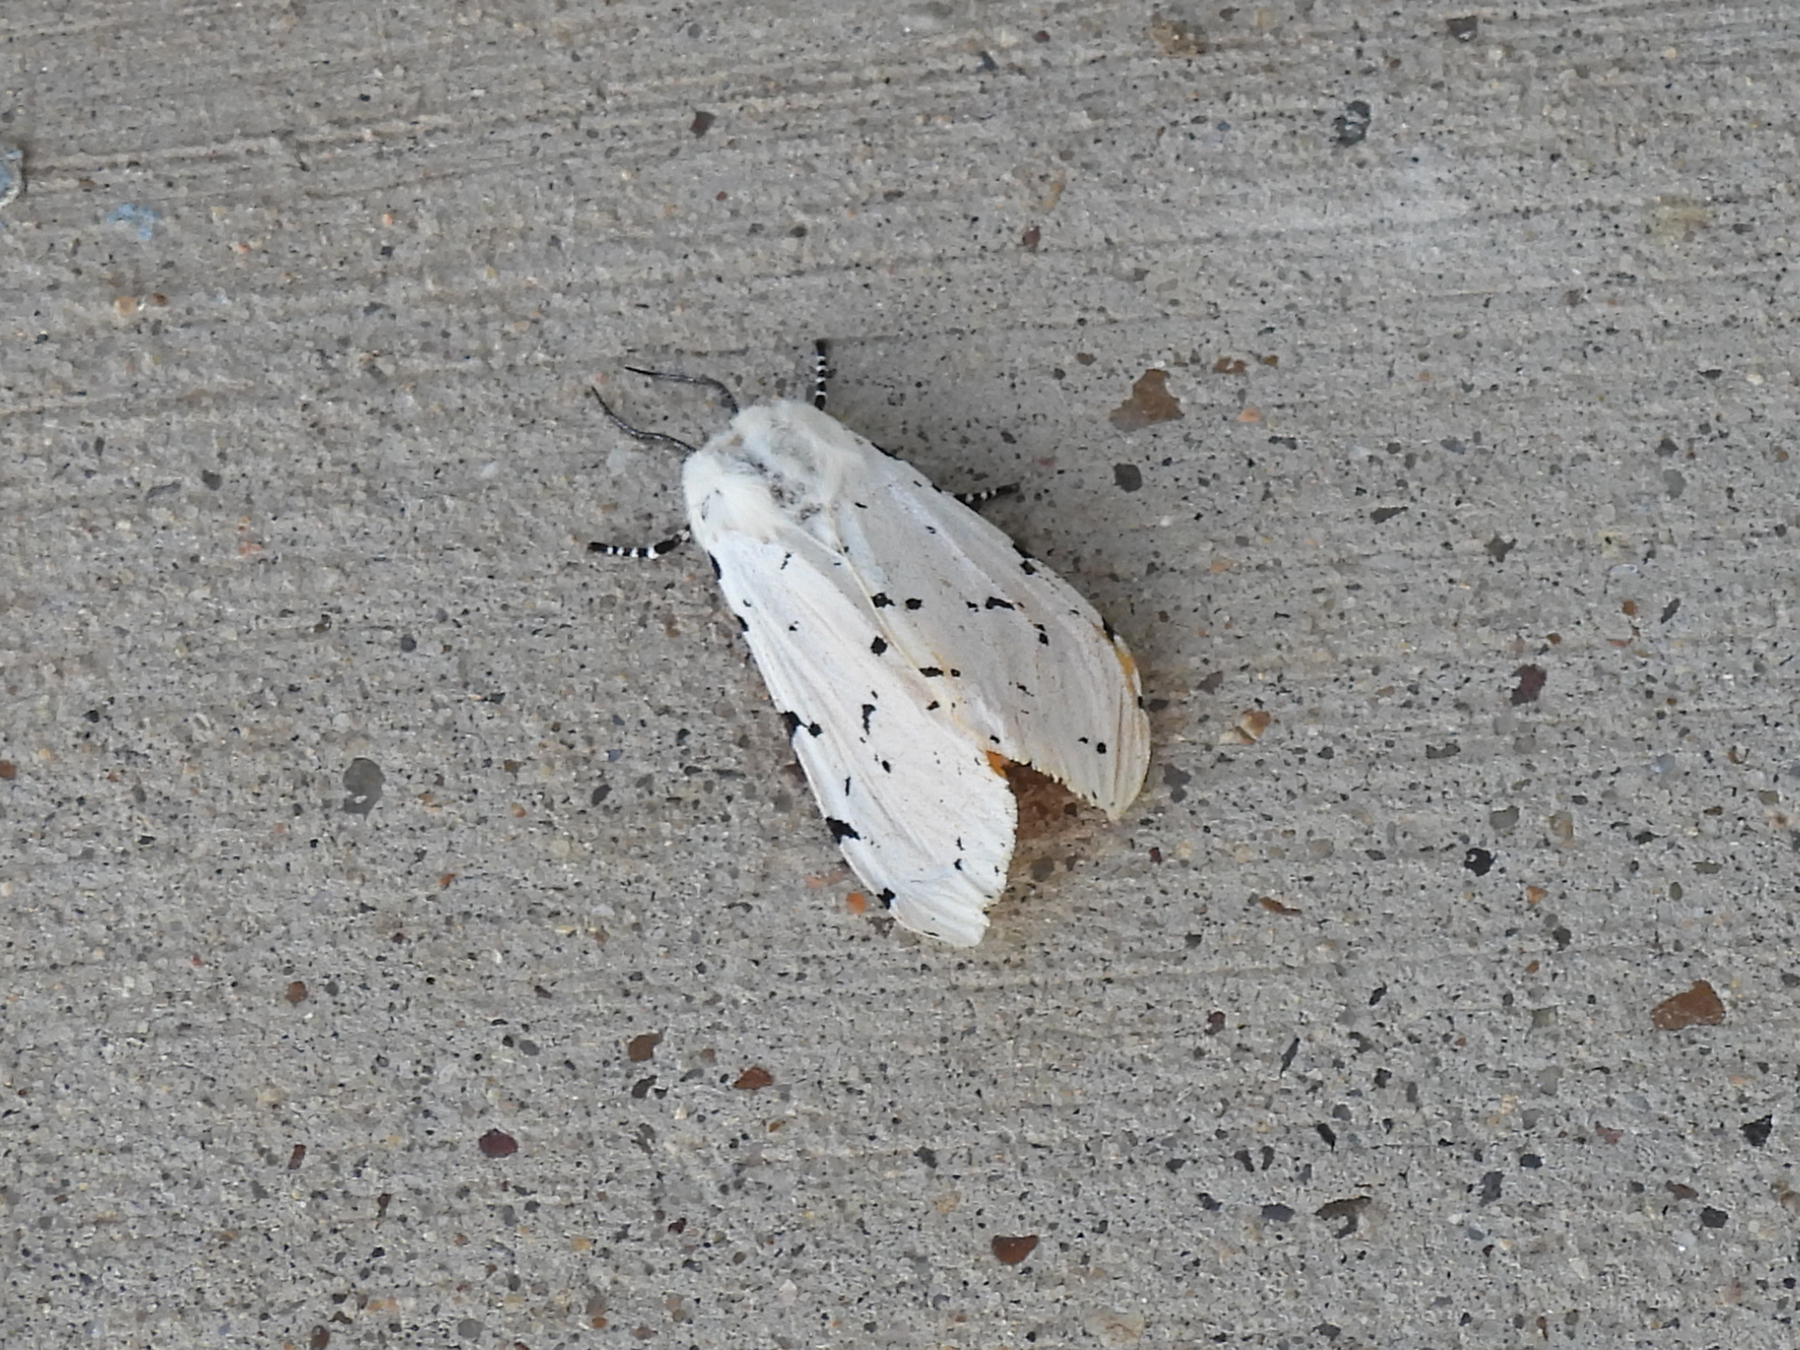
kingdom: Animalia
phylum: Arthropoda
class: Insecta
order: Lepidoptera
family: Erebidae
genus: Estigmene
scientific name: Estigmene acrea
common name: Salt marsh moth
